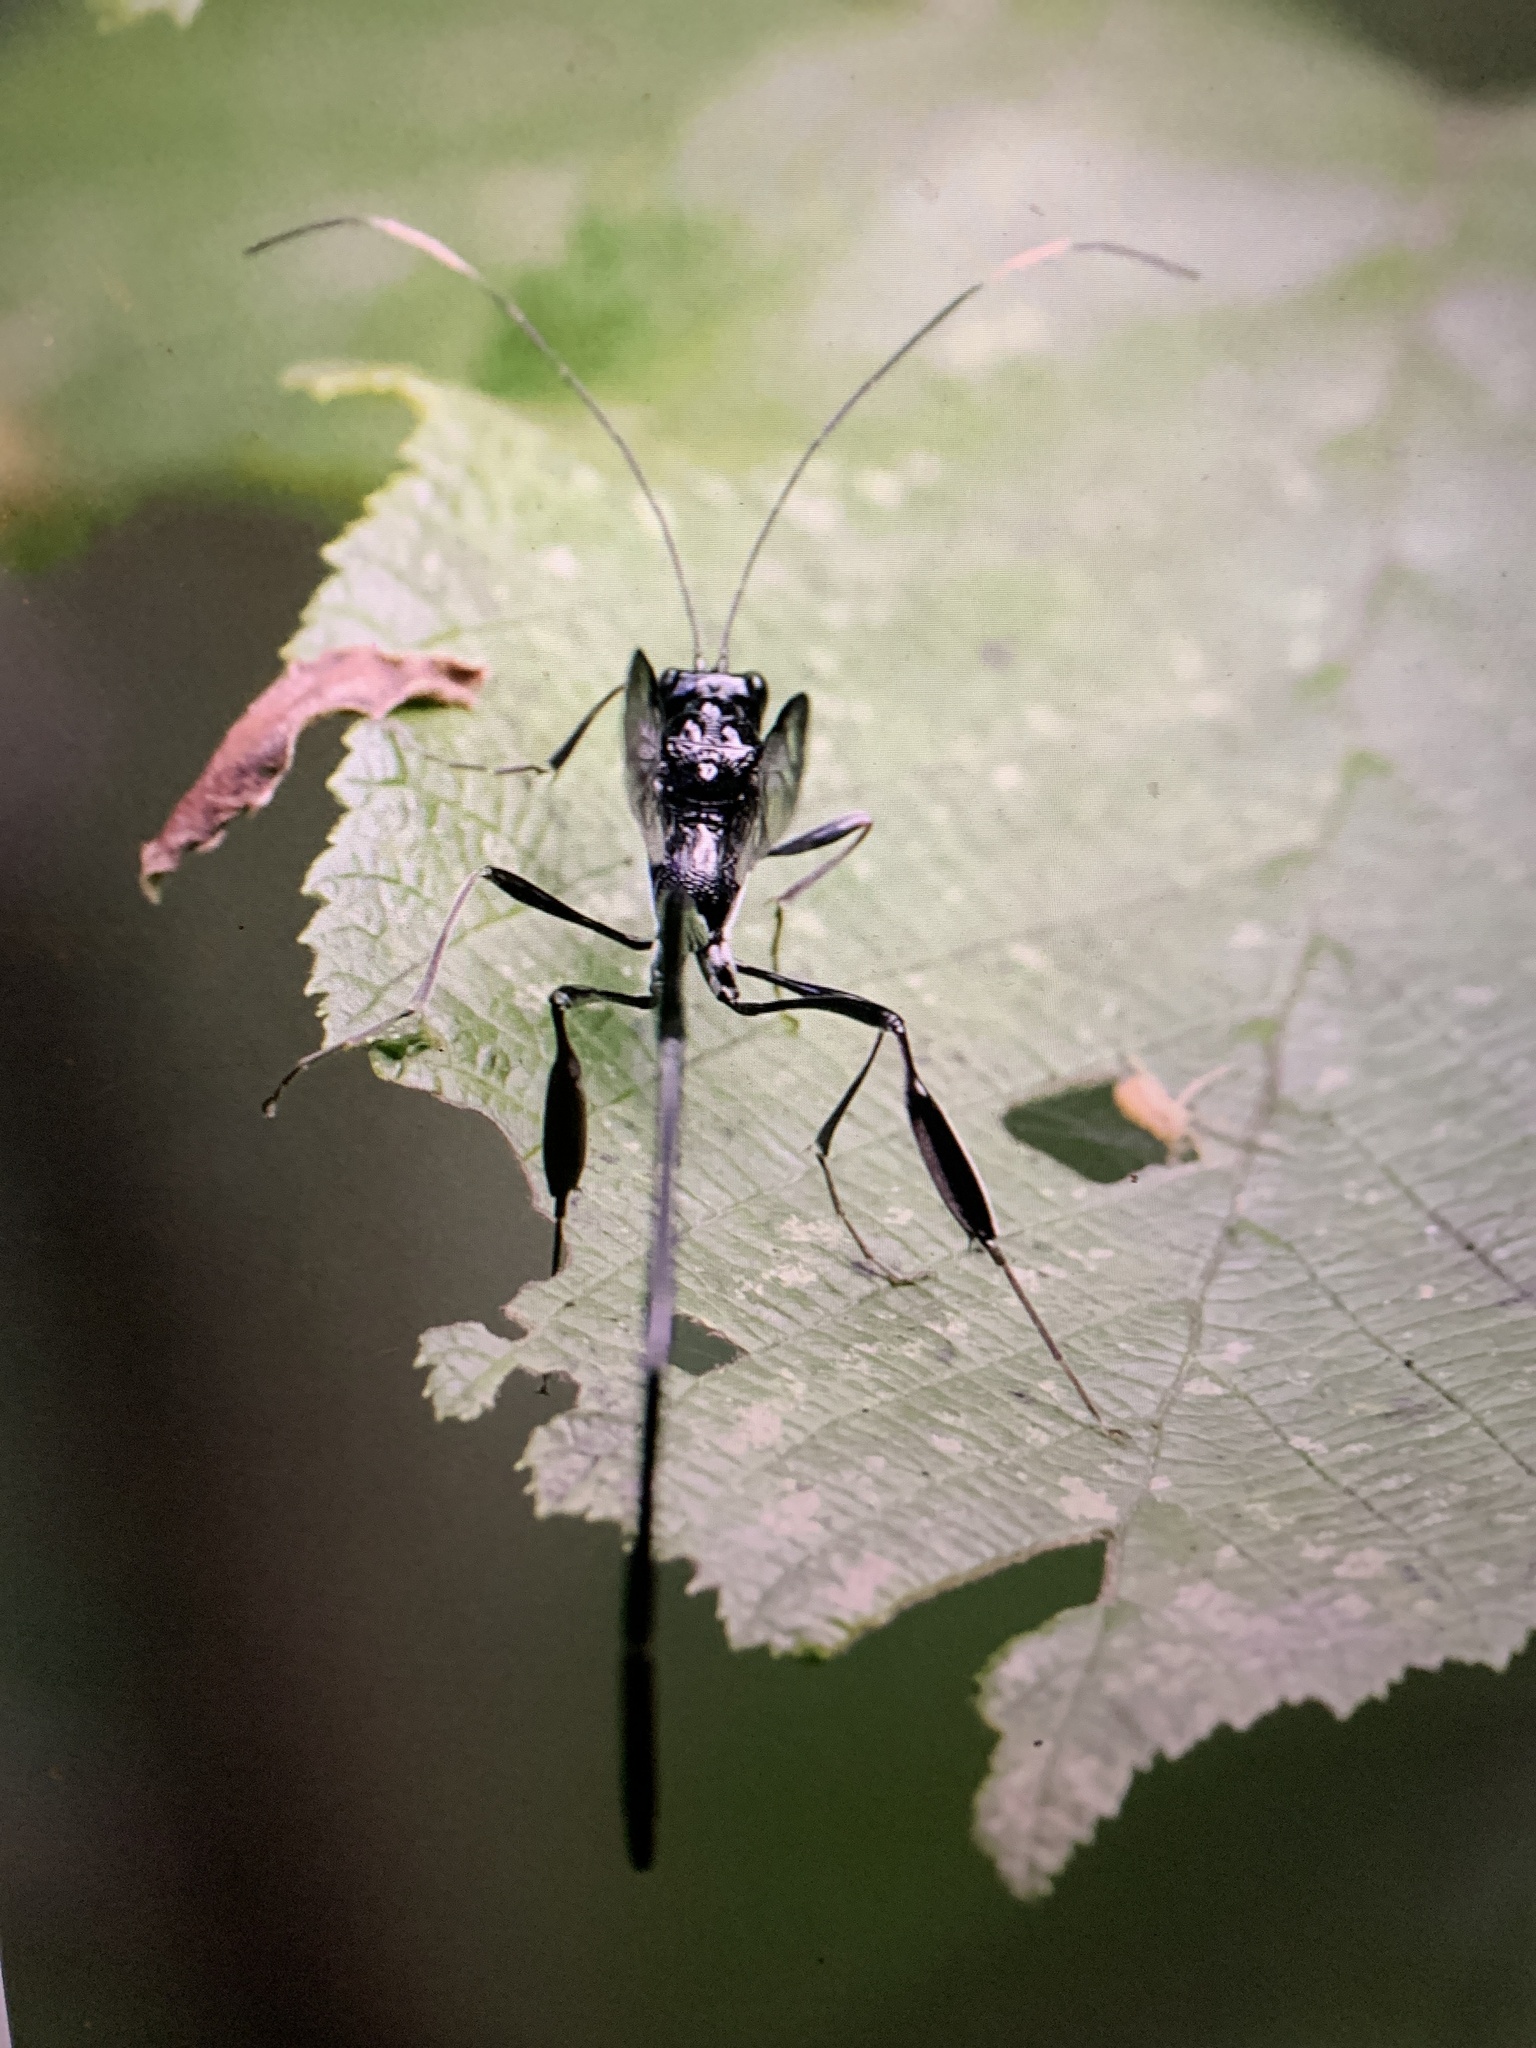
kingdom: Animalia
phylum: Arthropoda
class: Insecta
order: Hymenoptera
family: Pelecinidae
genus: Pelecinus
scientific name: Pelecinus polyturator
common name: American pelecinid wasp
